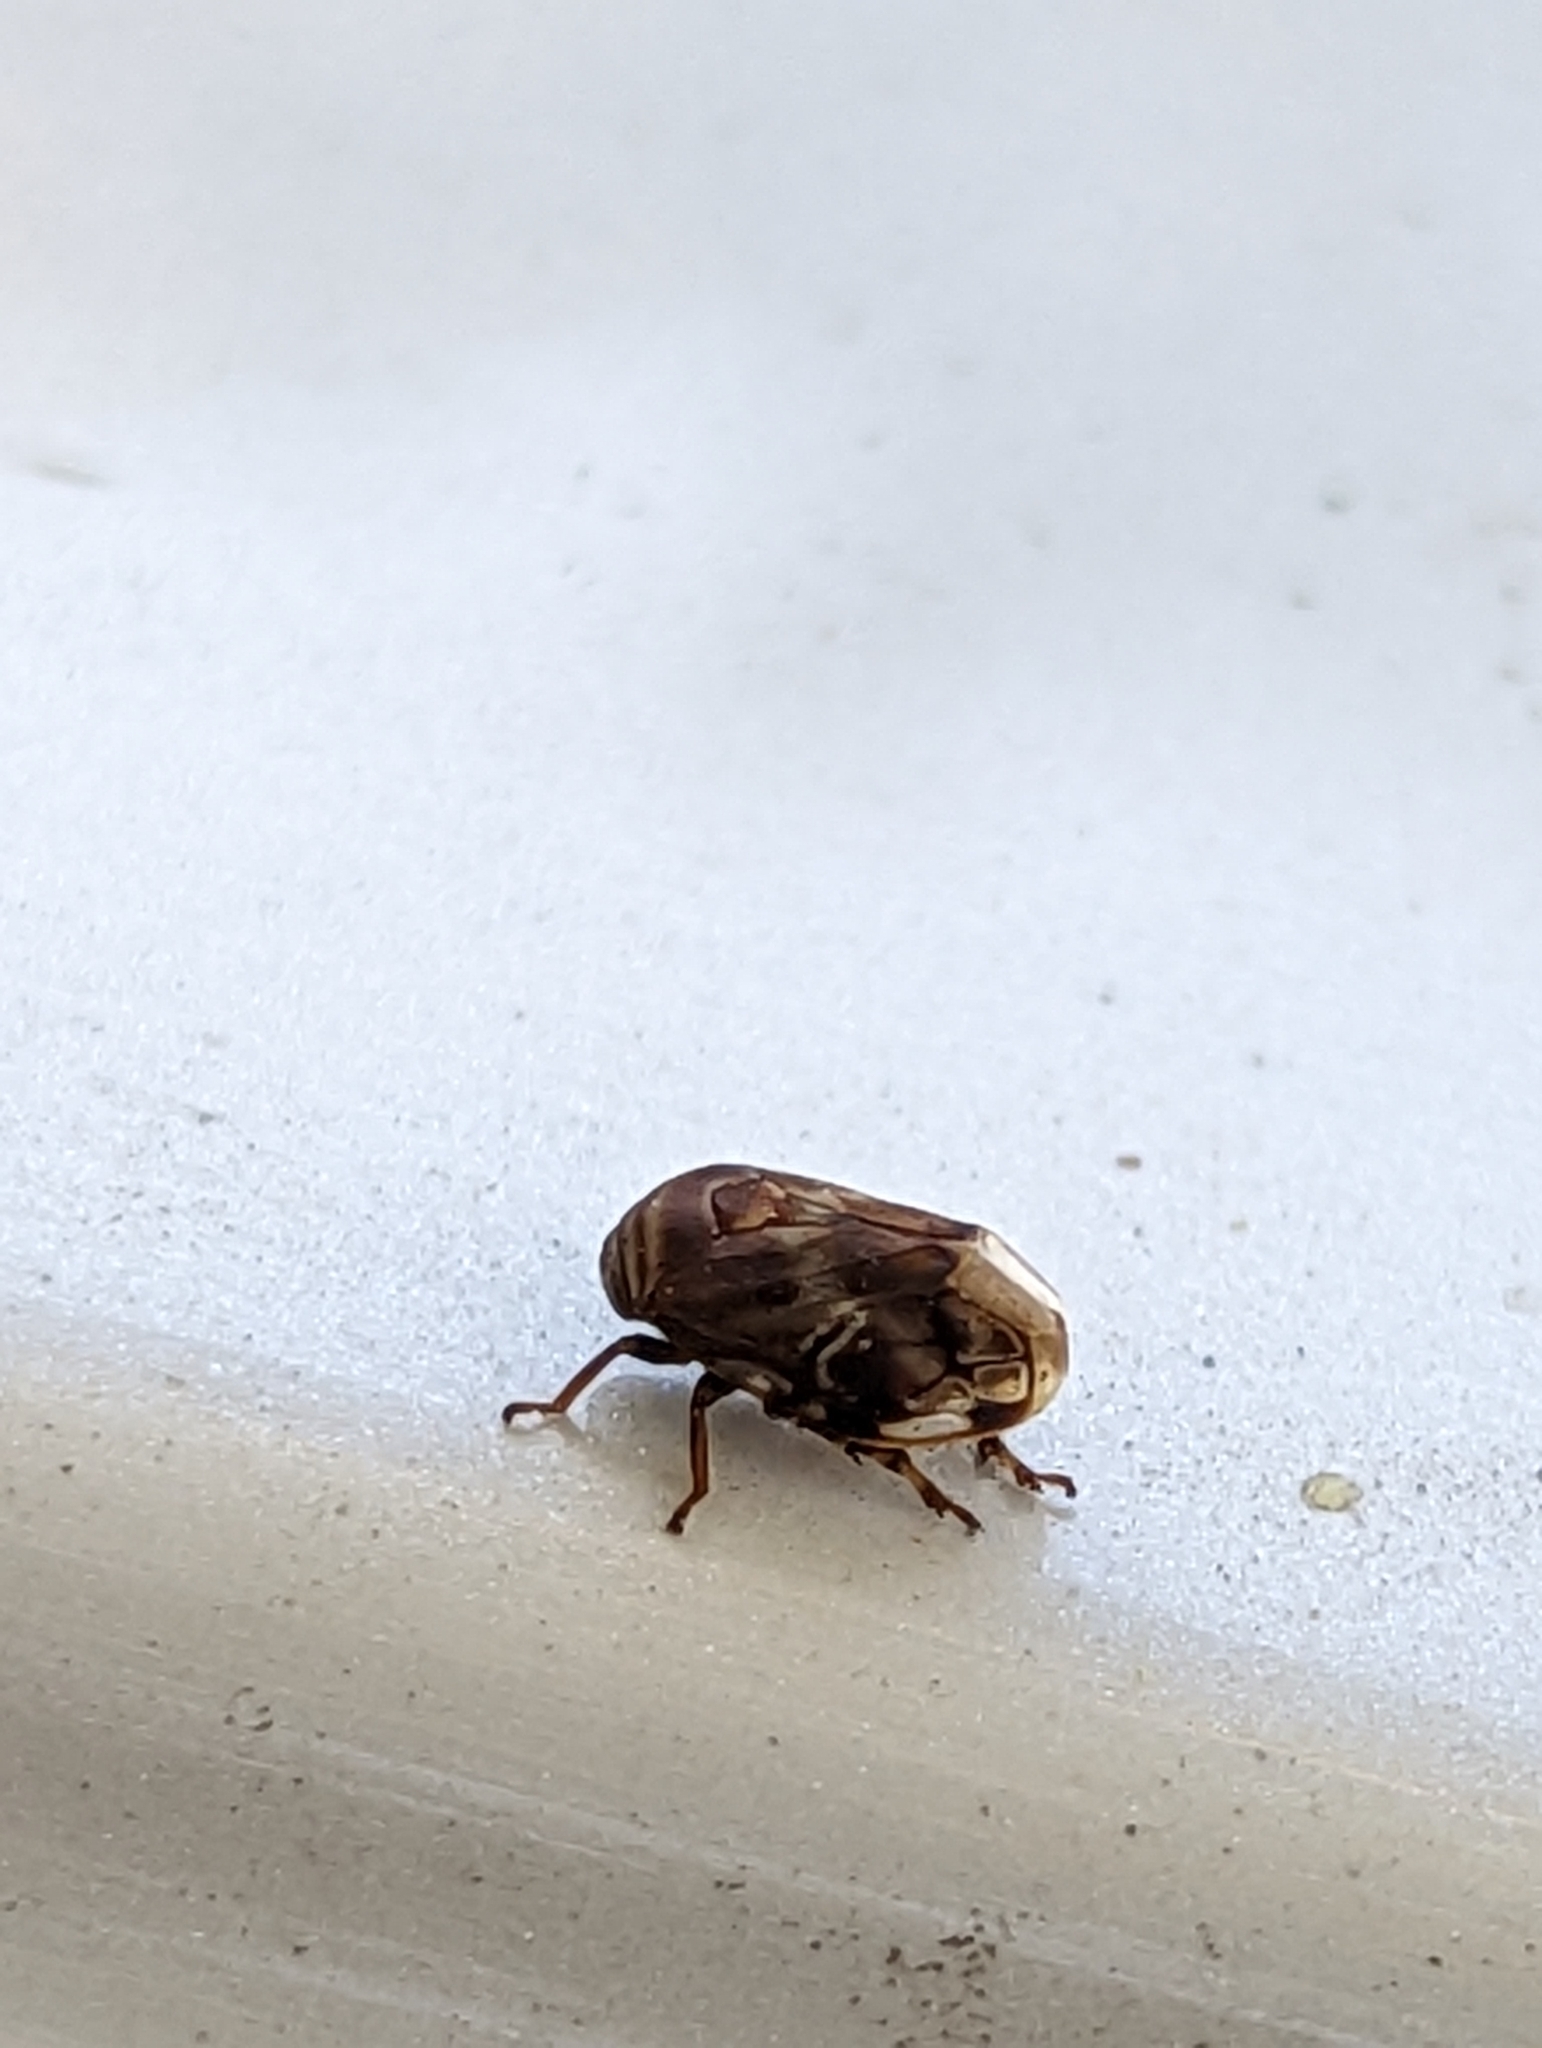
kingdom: Animalia
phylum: Arthropoda
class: Insecta
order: Hemiptera
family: Clastopteridae
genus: Clastoptera
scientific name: Clastoptera obtusa
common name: Alder spittlebug
